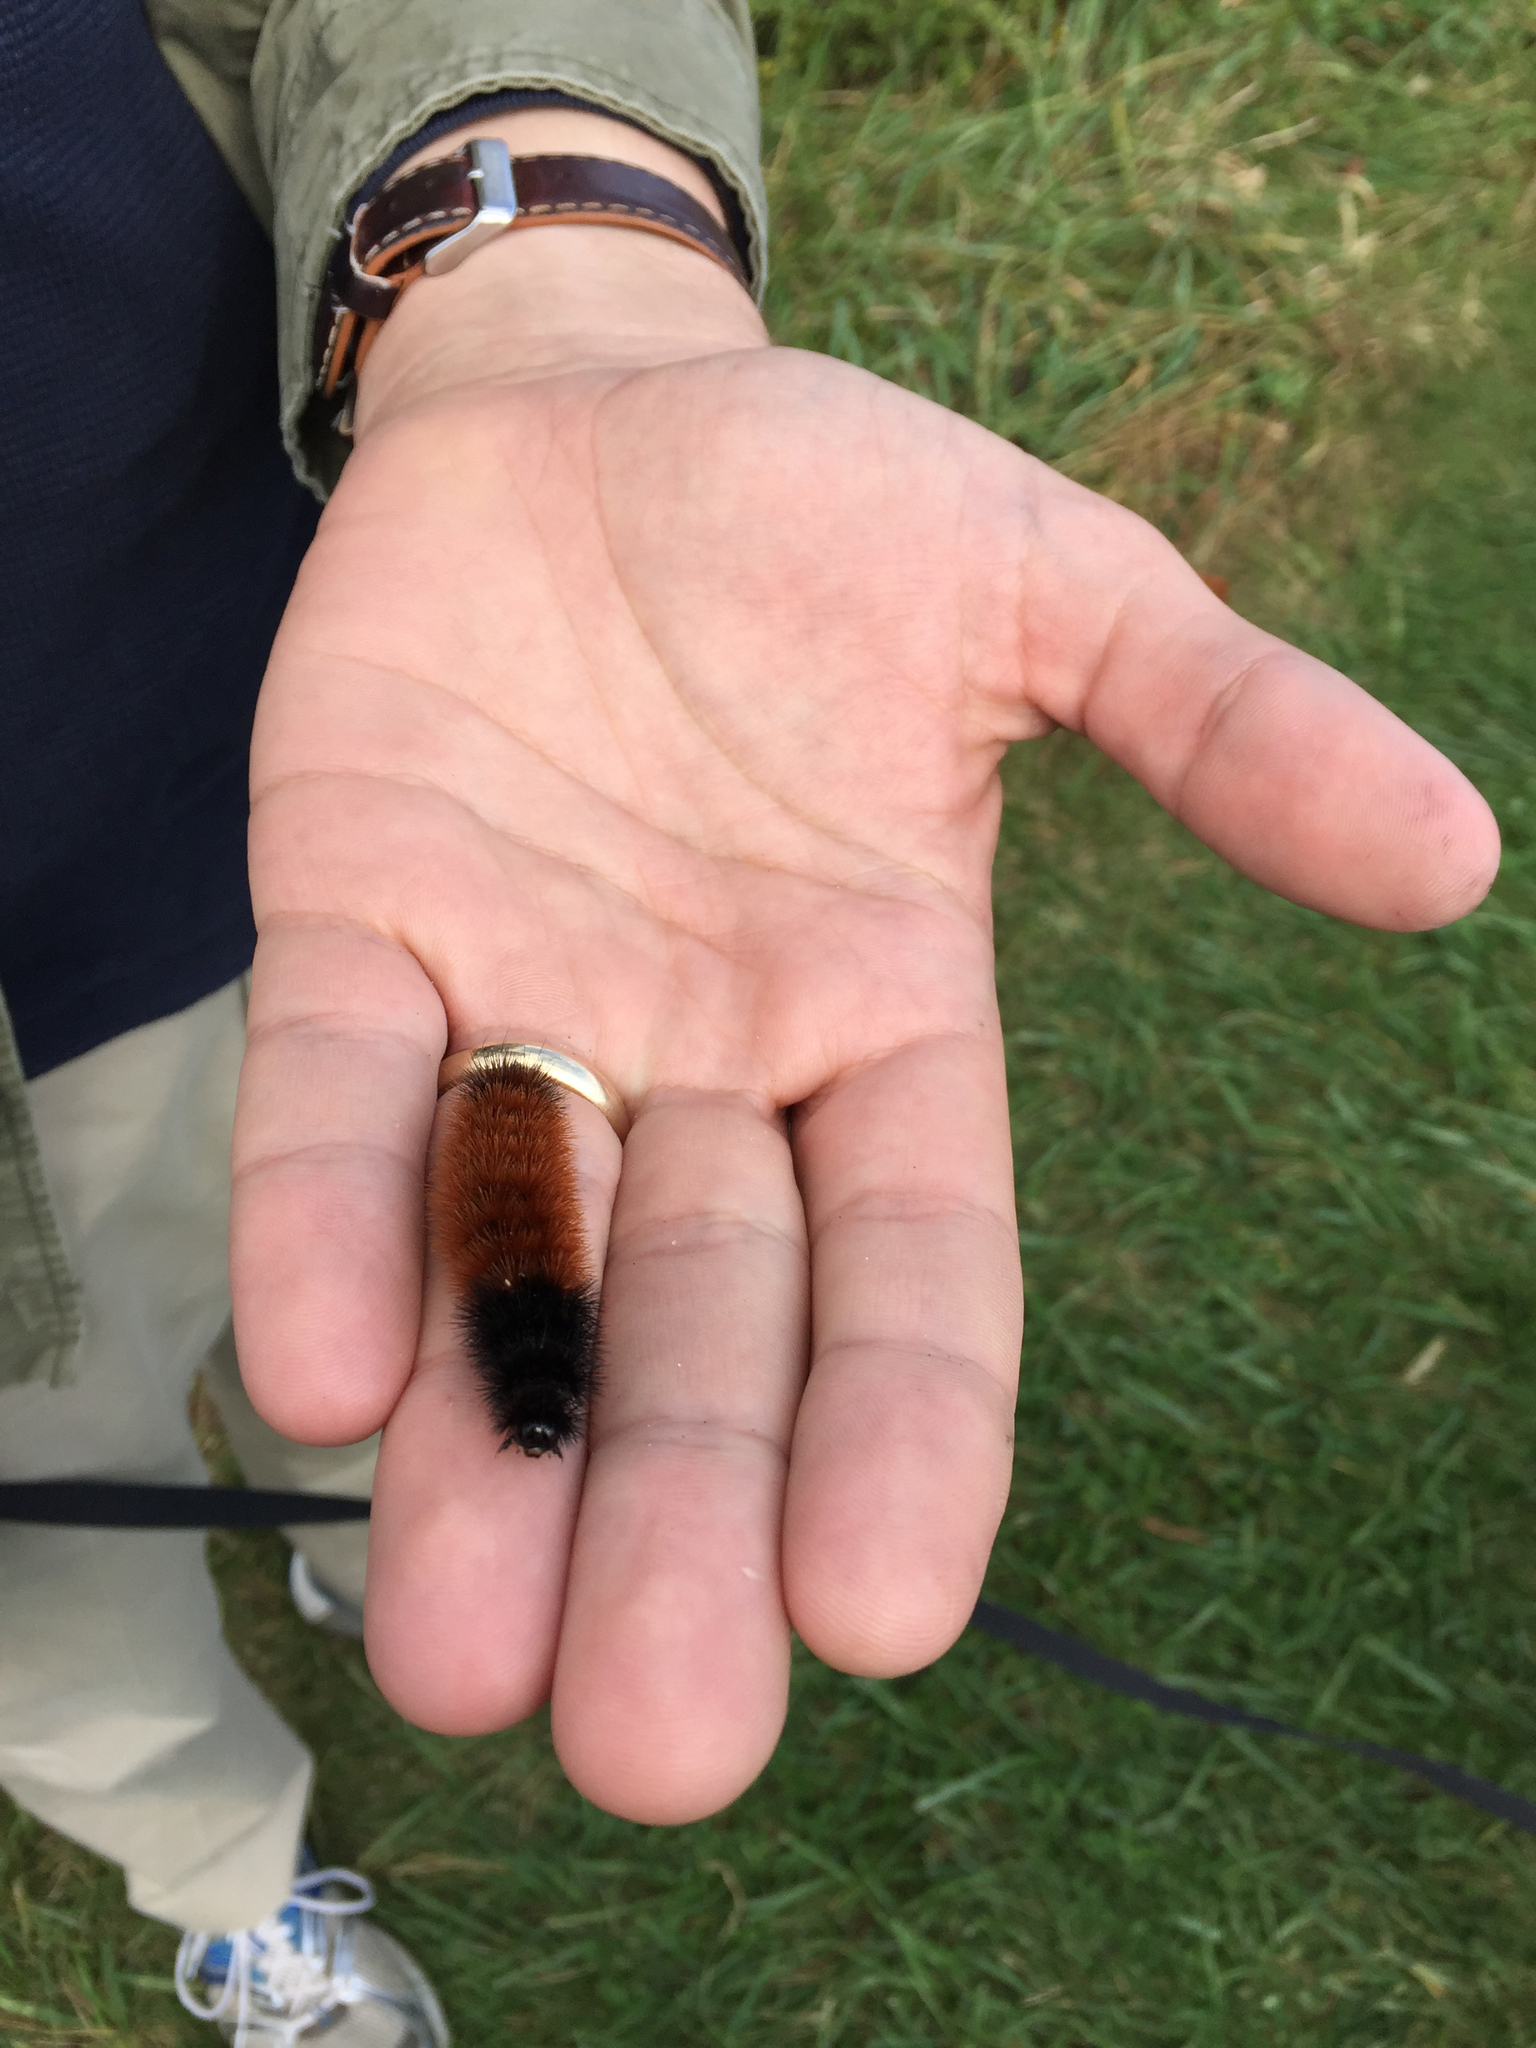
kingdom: Animalia
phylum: Arthropoda
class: Insecta
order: Lepidoptera
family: Erebidae
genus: Pyrrharctia
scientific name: Pyrrharctia isabella
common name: Isabella tiger moth
